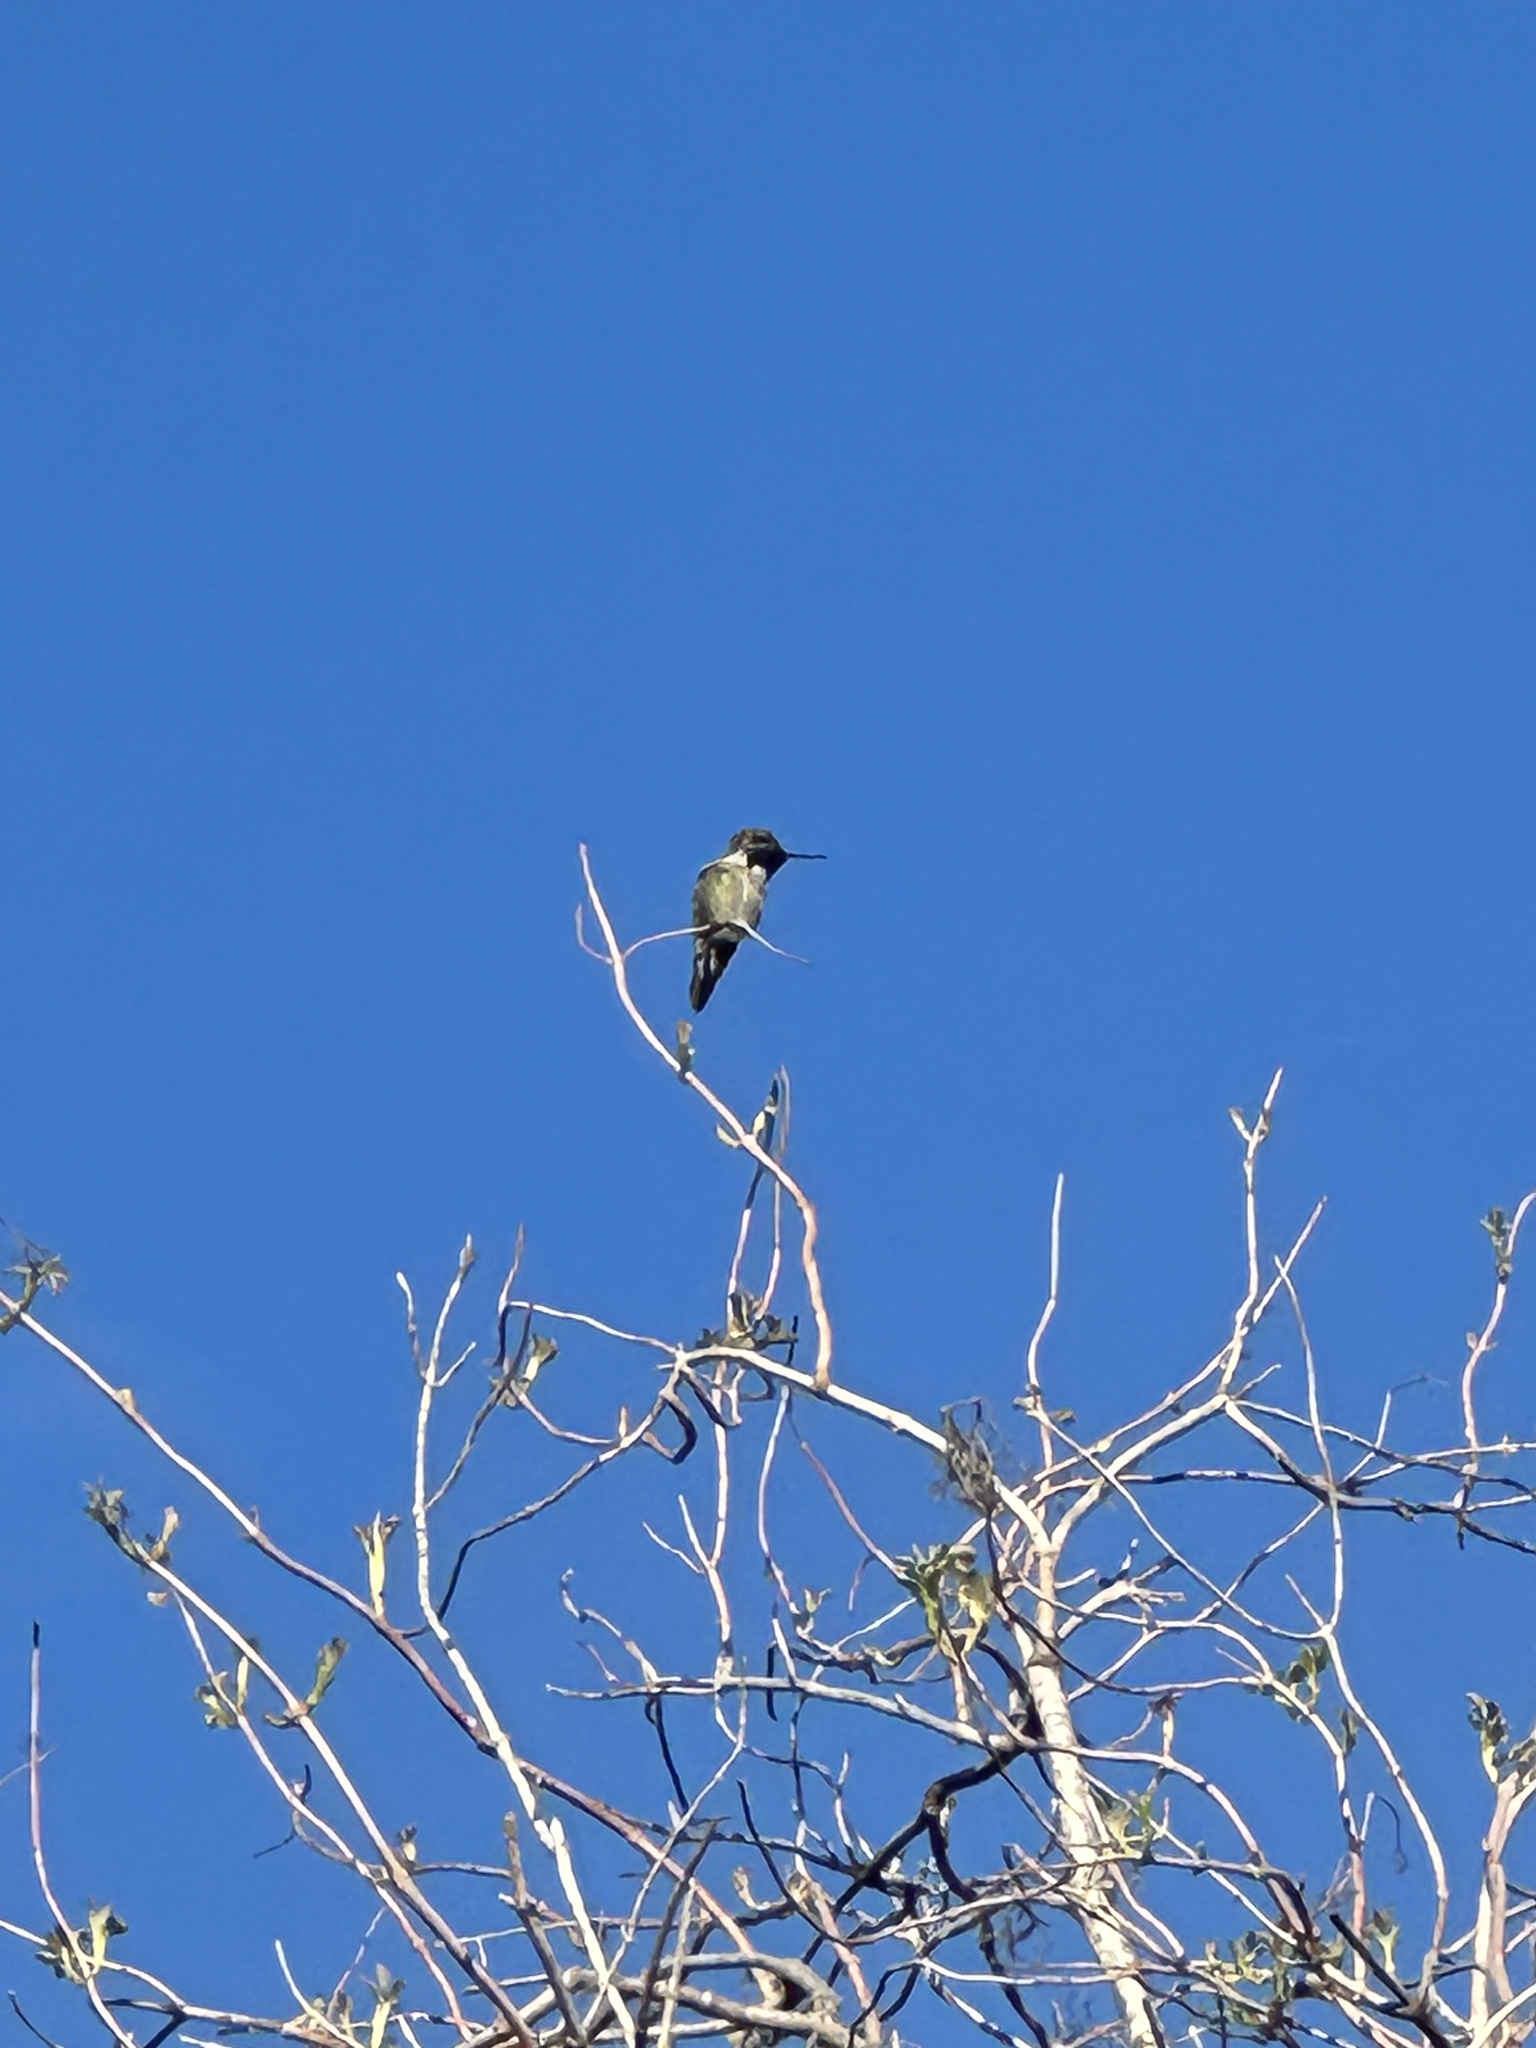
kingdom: Animalia
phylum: Chordata
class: Aves
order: Apodiformes
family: Trochilidae
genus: Calypte
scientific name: Calypte anna
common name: Anna's hummingbird
